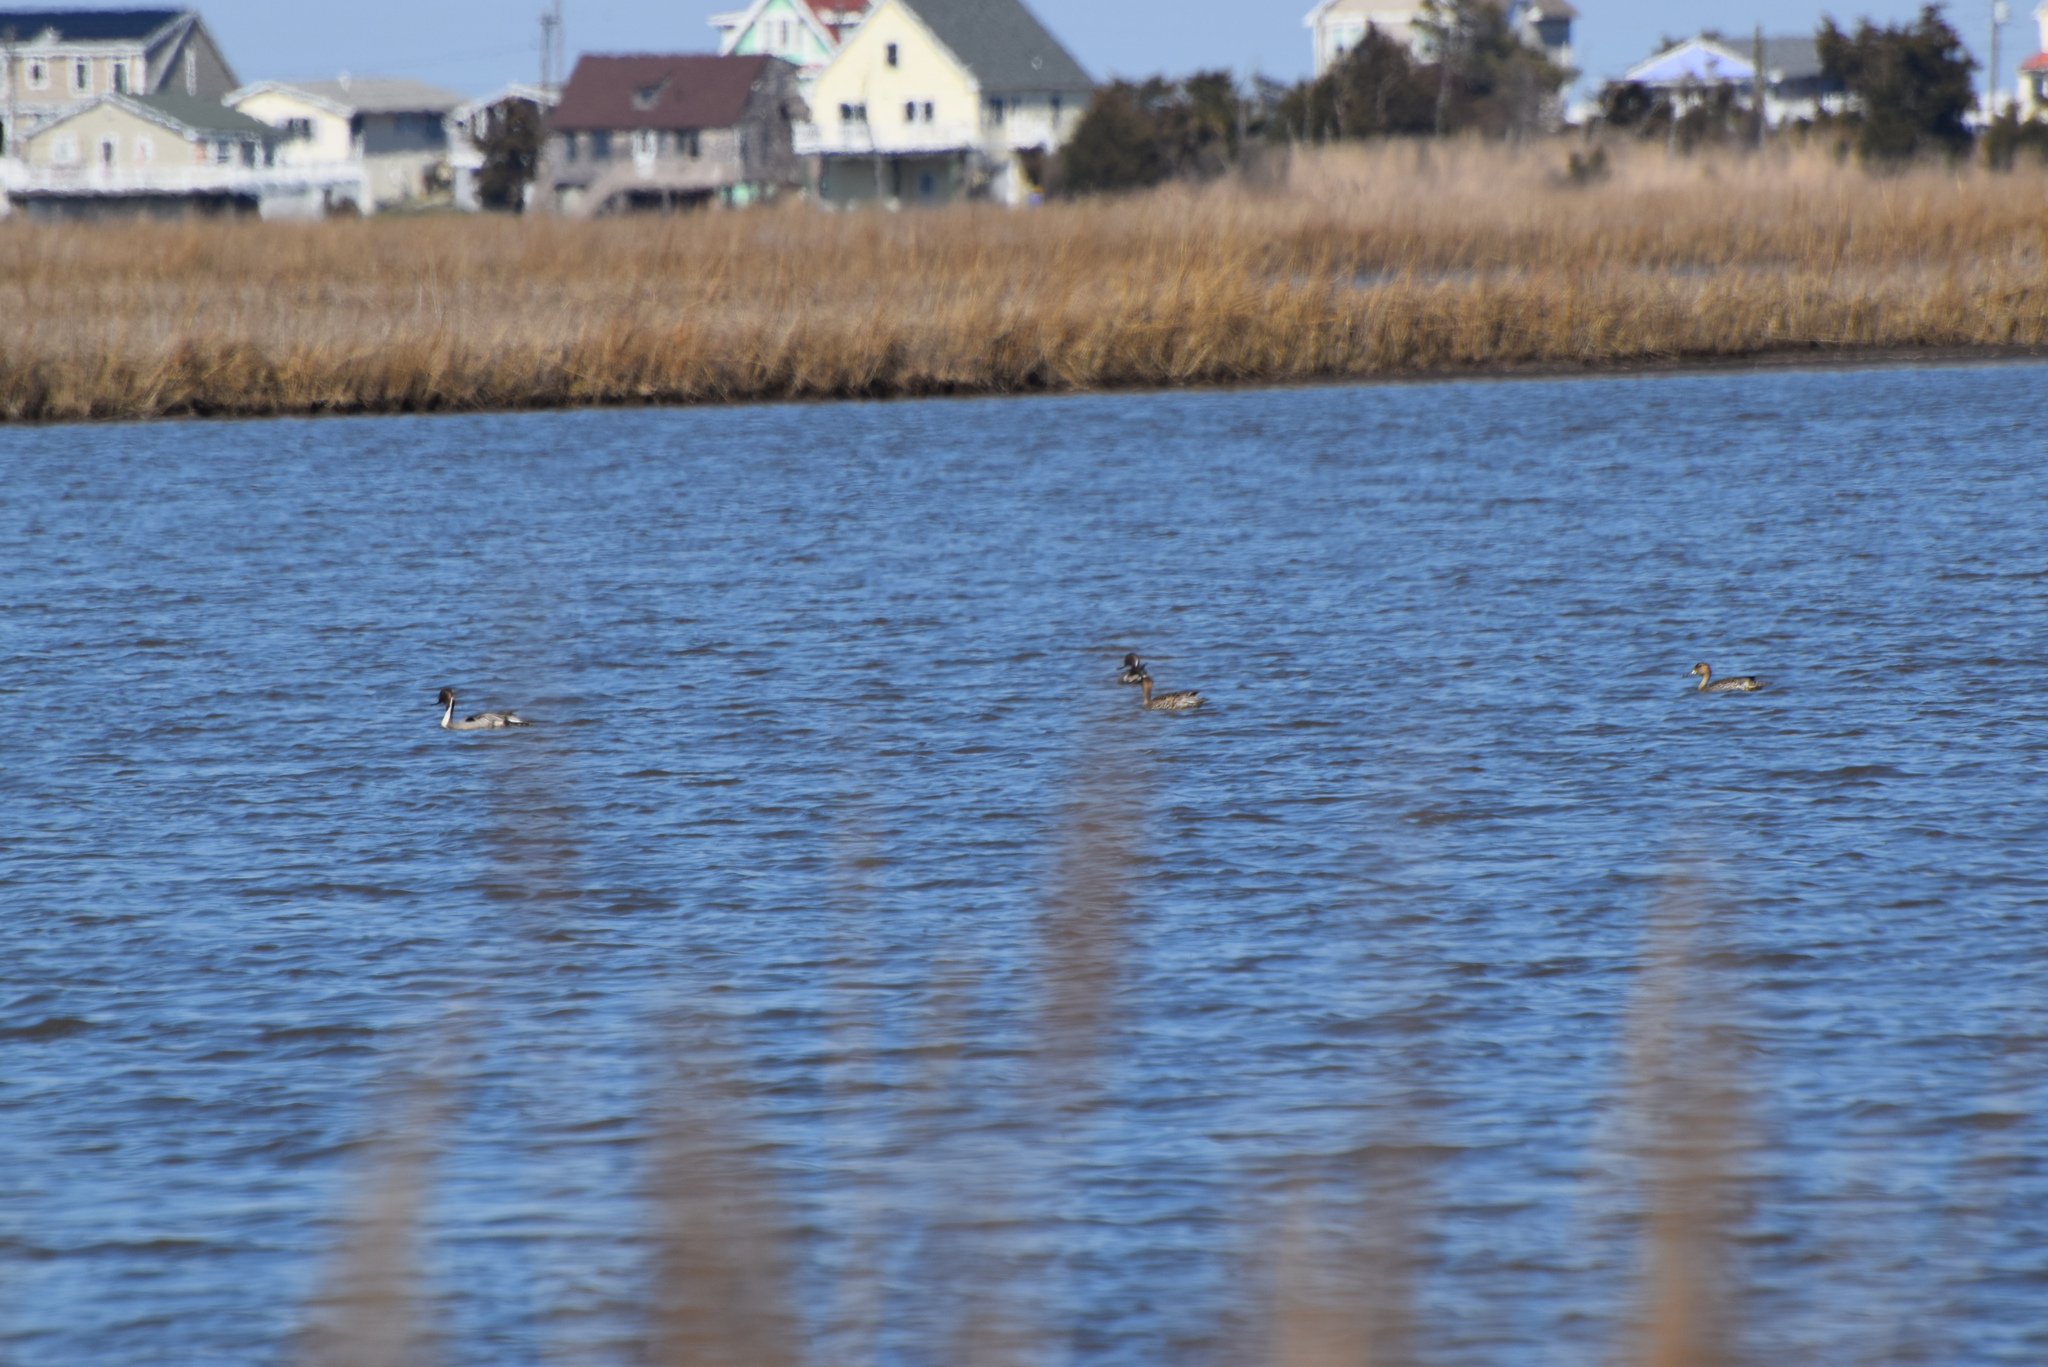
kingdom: Animalia
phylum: Chordata
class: Aves
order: Anseriformes
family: Anatidae
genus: Anas
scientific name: Anas acuta
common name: Northern pintail
